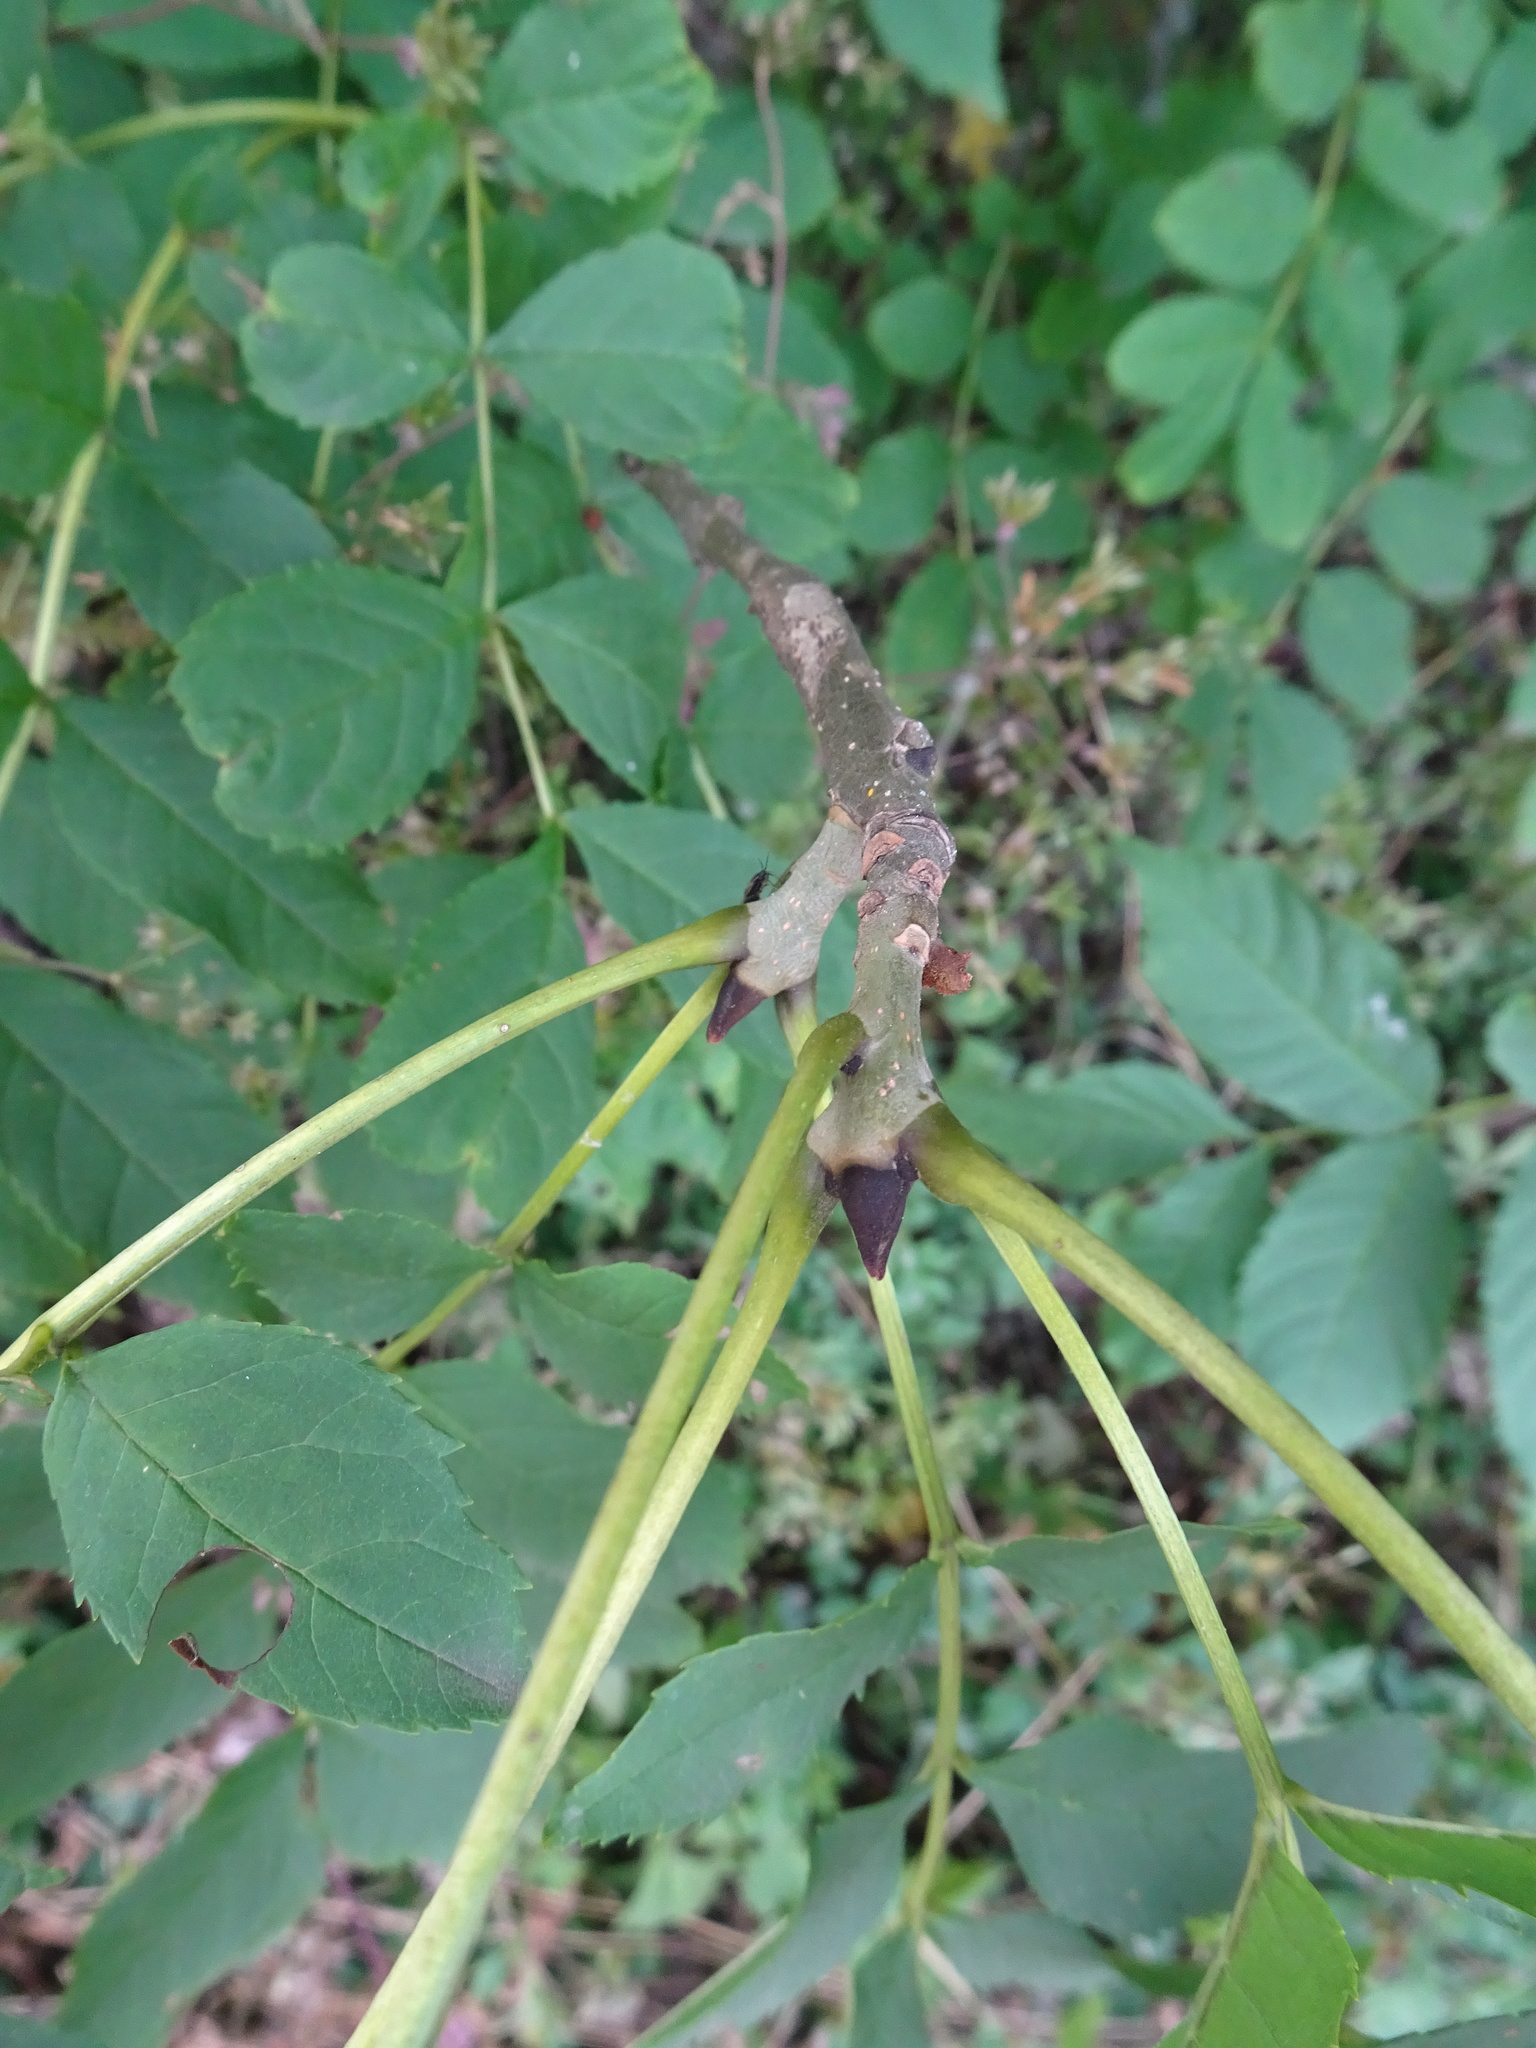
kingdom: Plantae
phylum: Tracheophyta
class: Magnoliopsida
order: Lamiales
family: Oleaceae
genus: Fraxinus
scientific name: Fraxinus excelsior
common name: European ash
